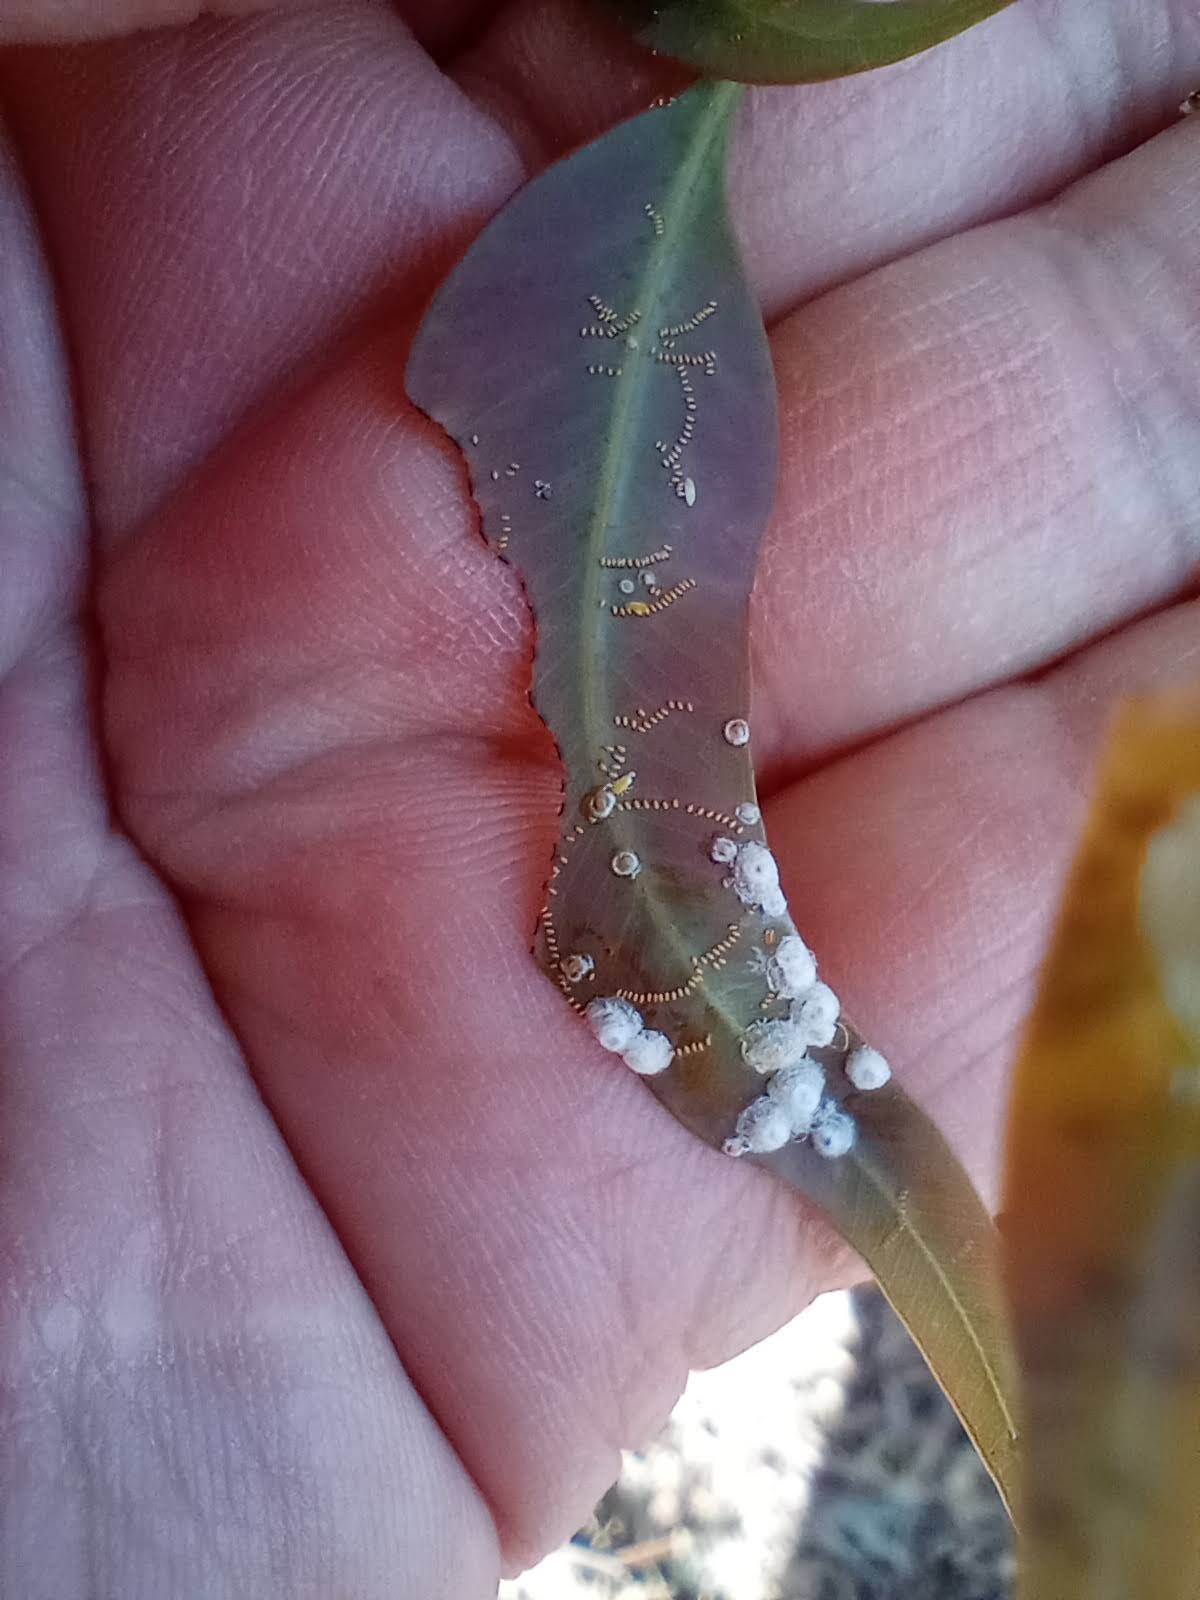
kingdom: Animalia
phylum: Arthropoda
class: Insecta
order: Hemiptera
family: Aphalaridae
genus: Glycaspis
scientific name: Glycaspis brimblecombei
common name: Red gum lerp psyllid
